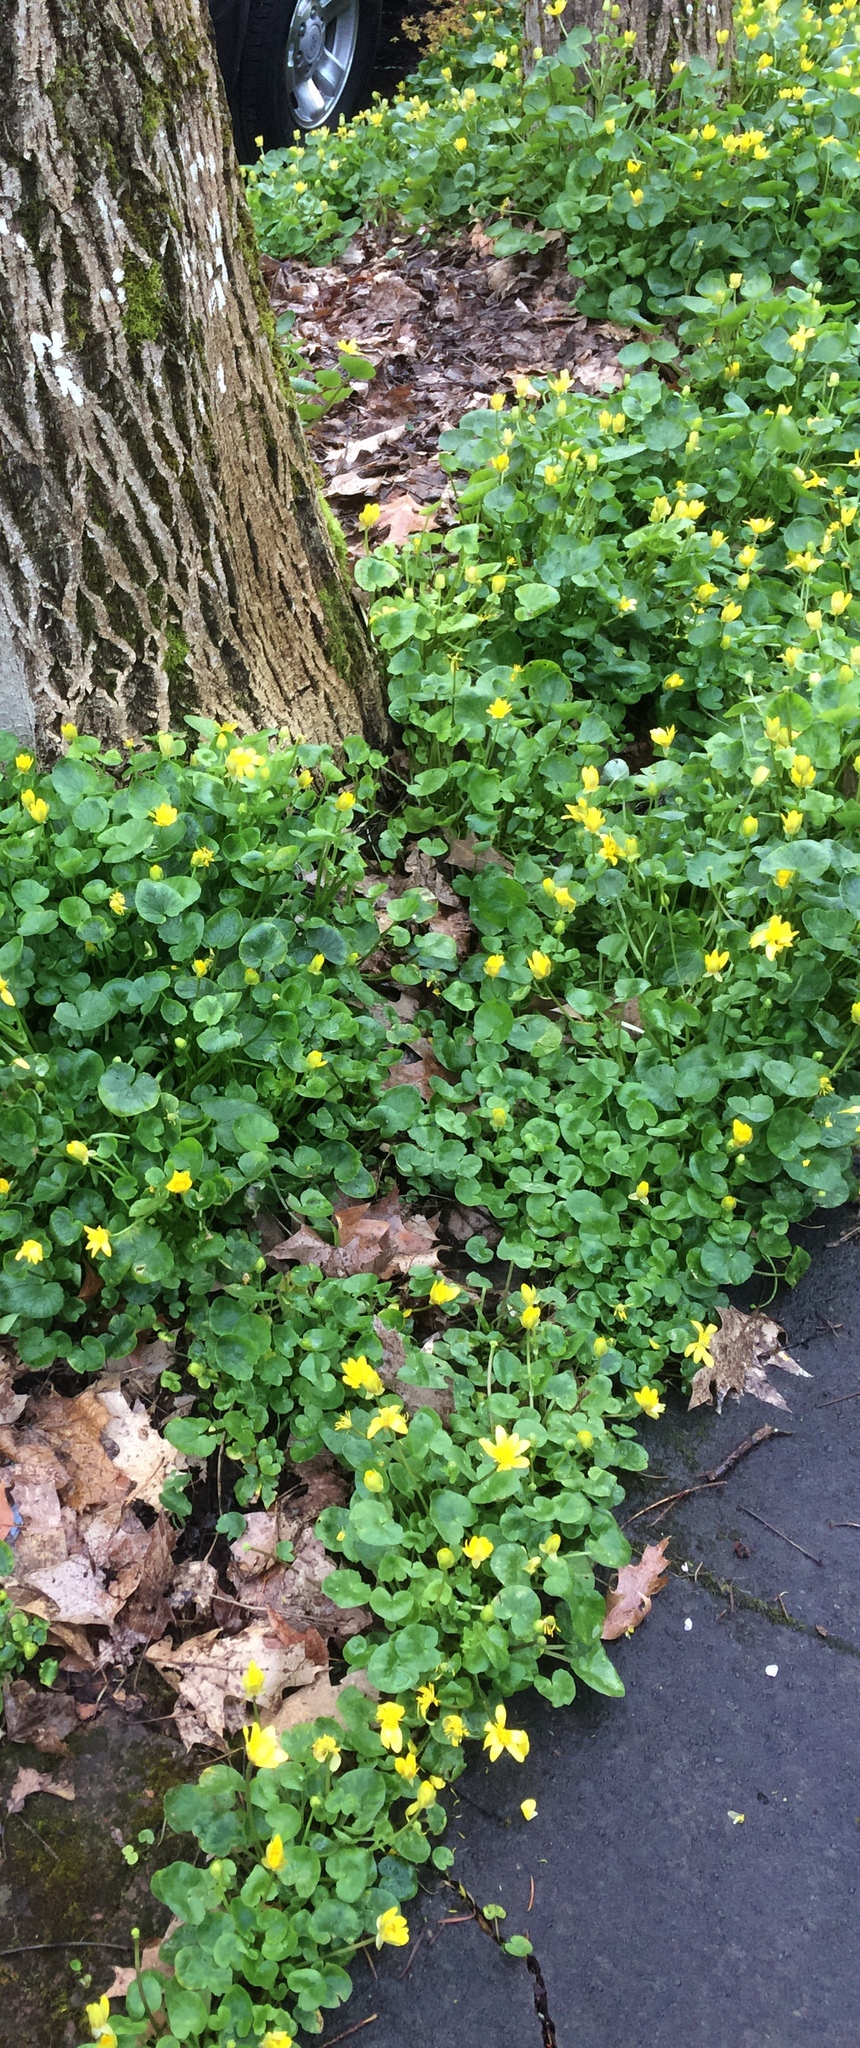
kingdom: Plantae
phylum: Tracheophyta
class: Magnoliopsida
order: Ranunculales
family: Ranunculaceae
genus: Ficaria
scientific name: Ficaria verna
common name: Lesser celandine
